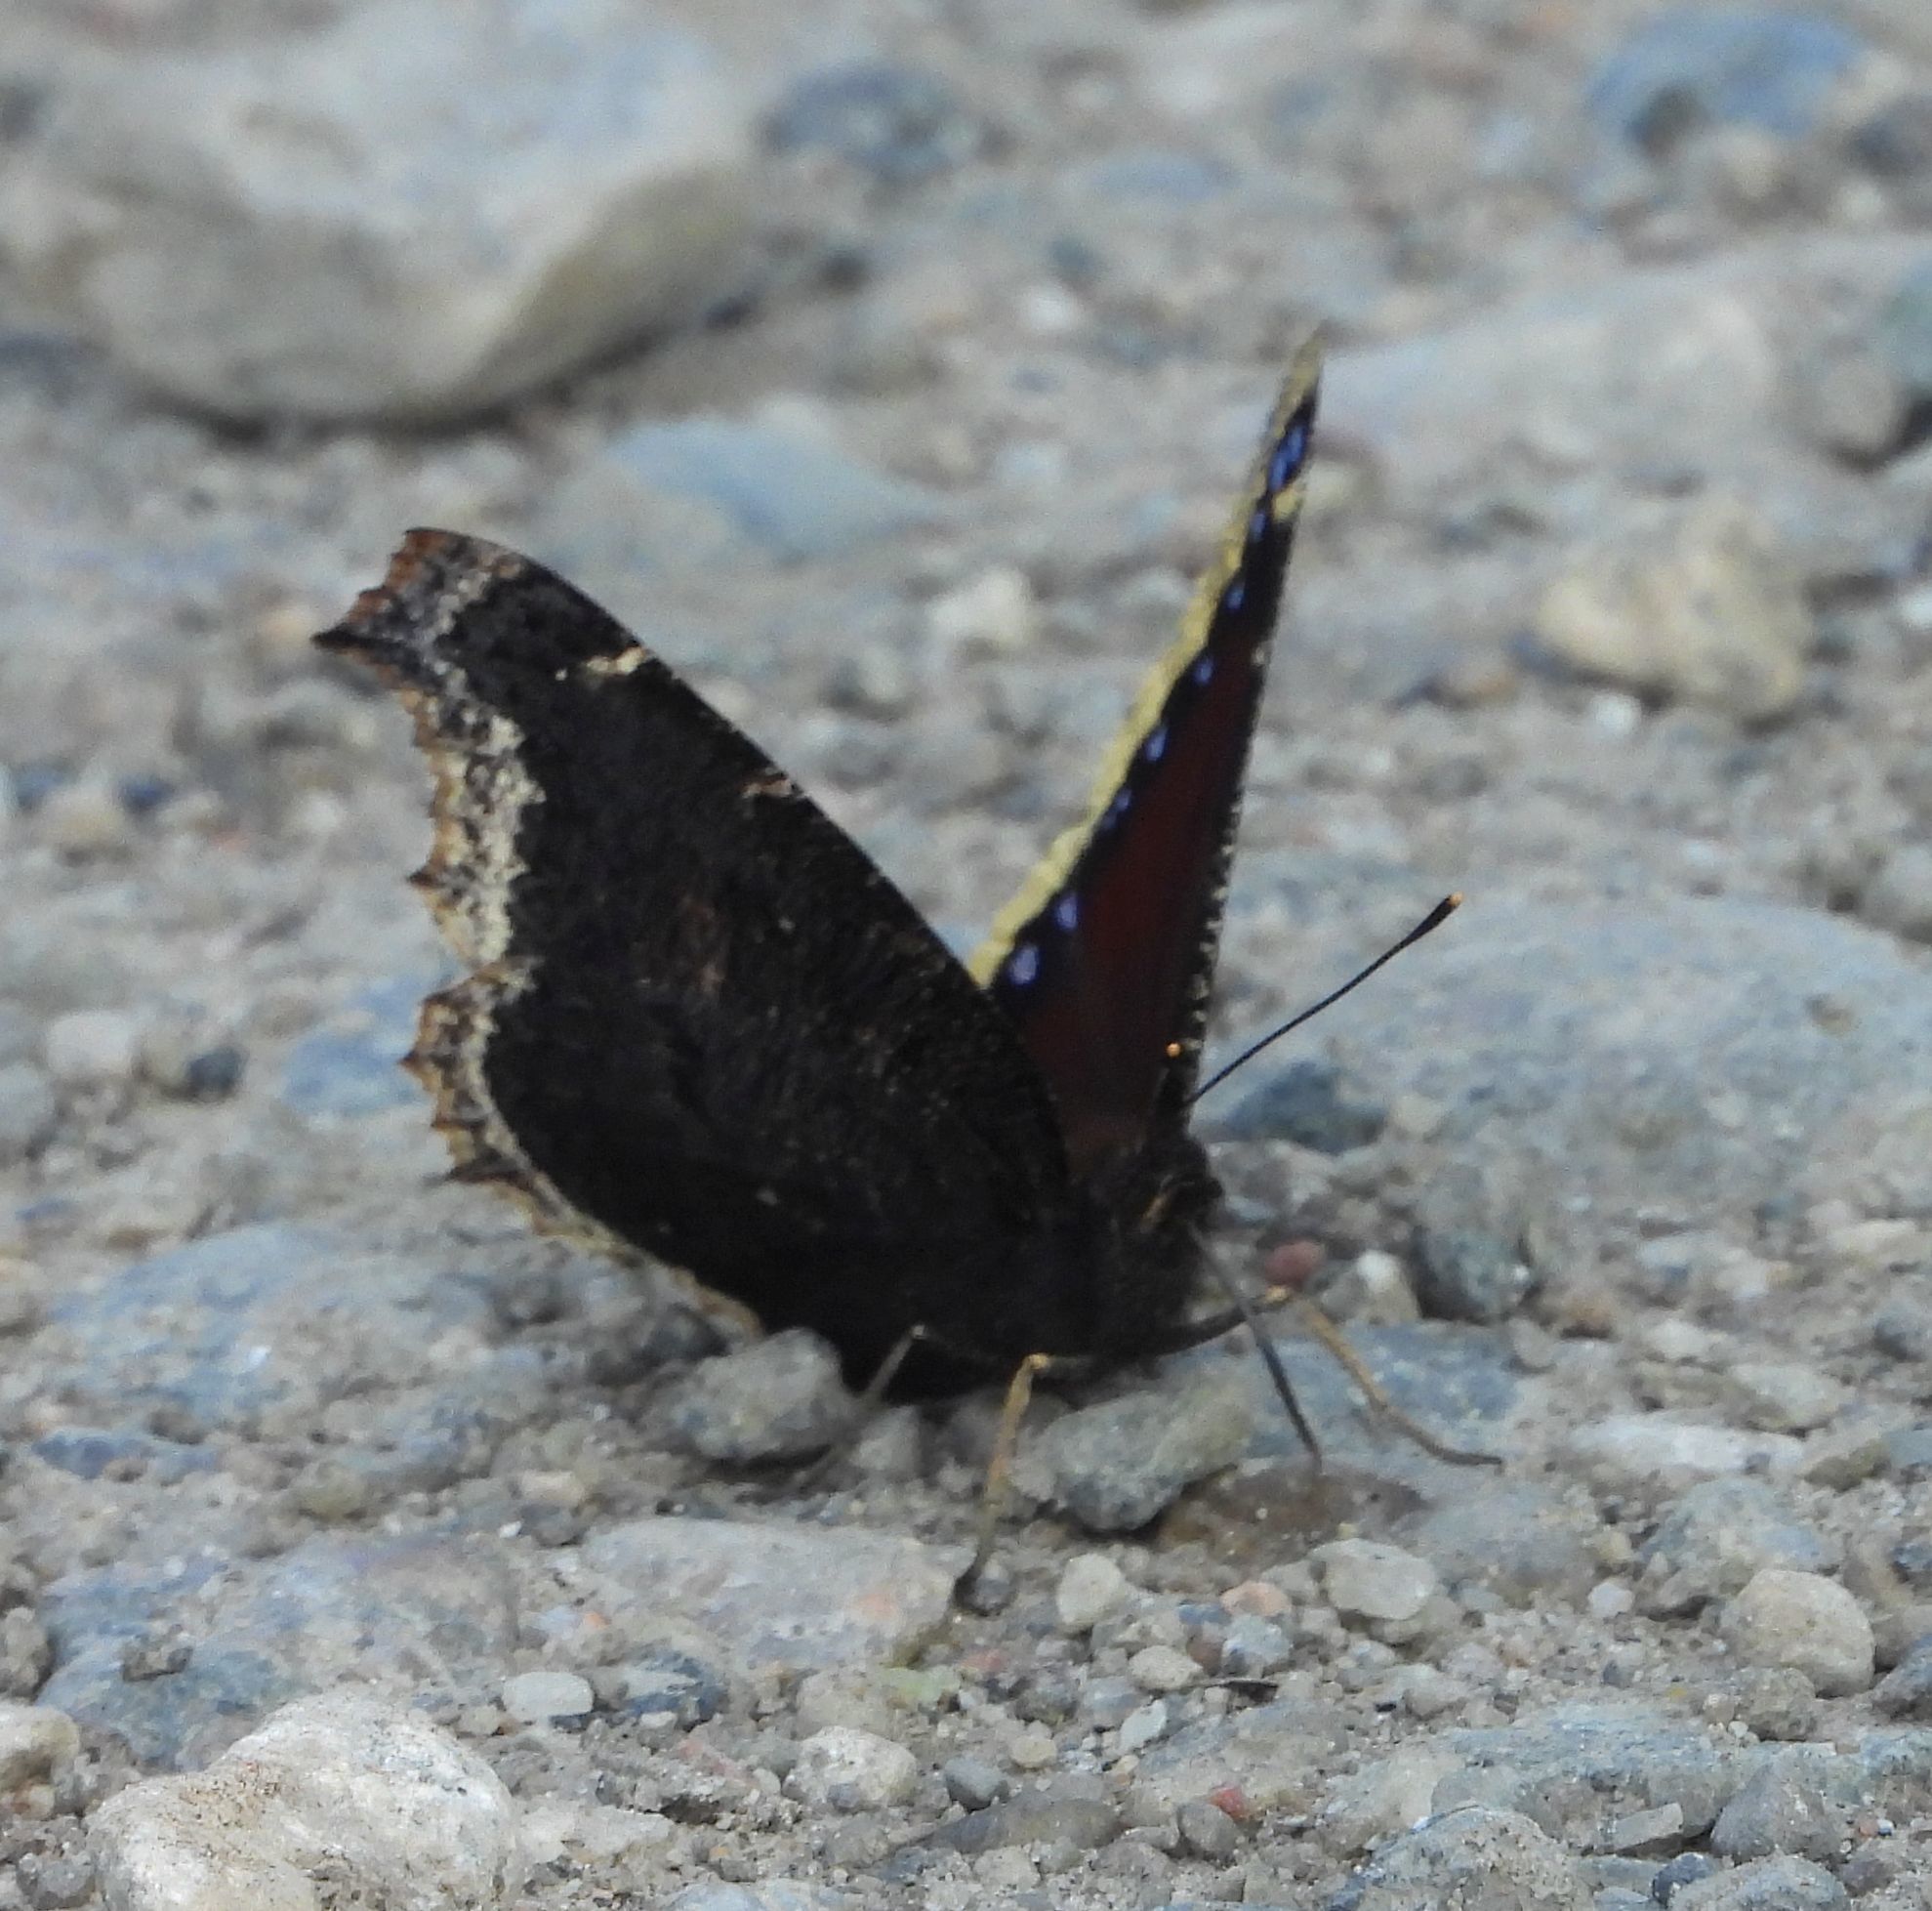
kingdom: Animalia
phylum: Arthropoda
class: Insecta
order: Lepidoptera
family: Nymphalidae
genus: Nymphalis
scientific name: Nymphalis antiopa
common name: Camberwell beauty
